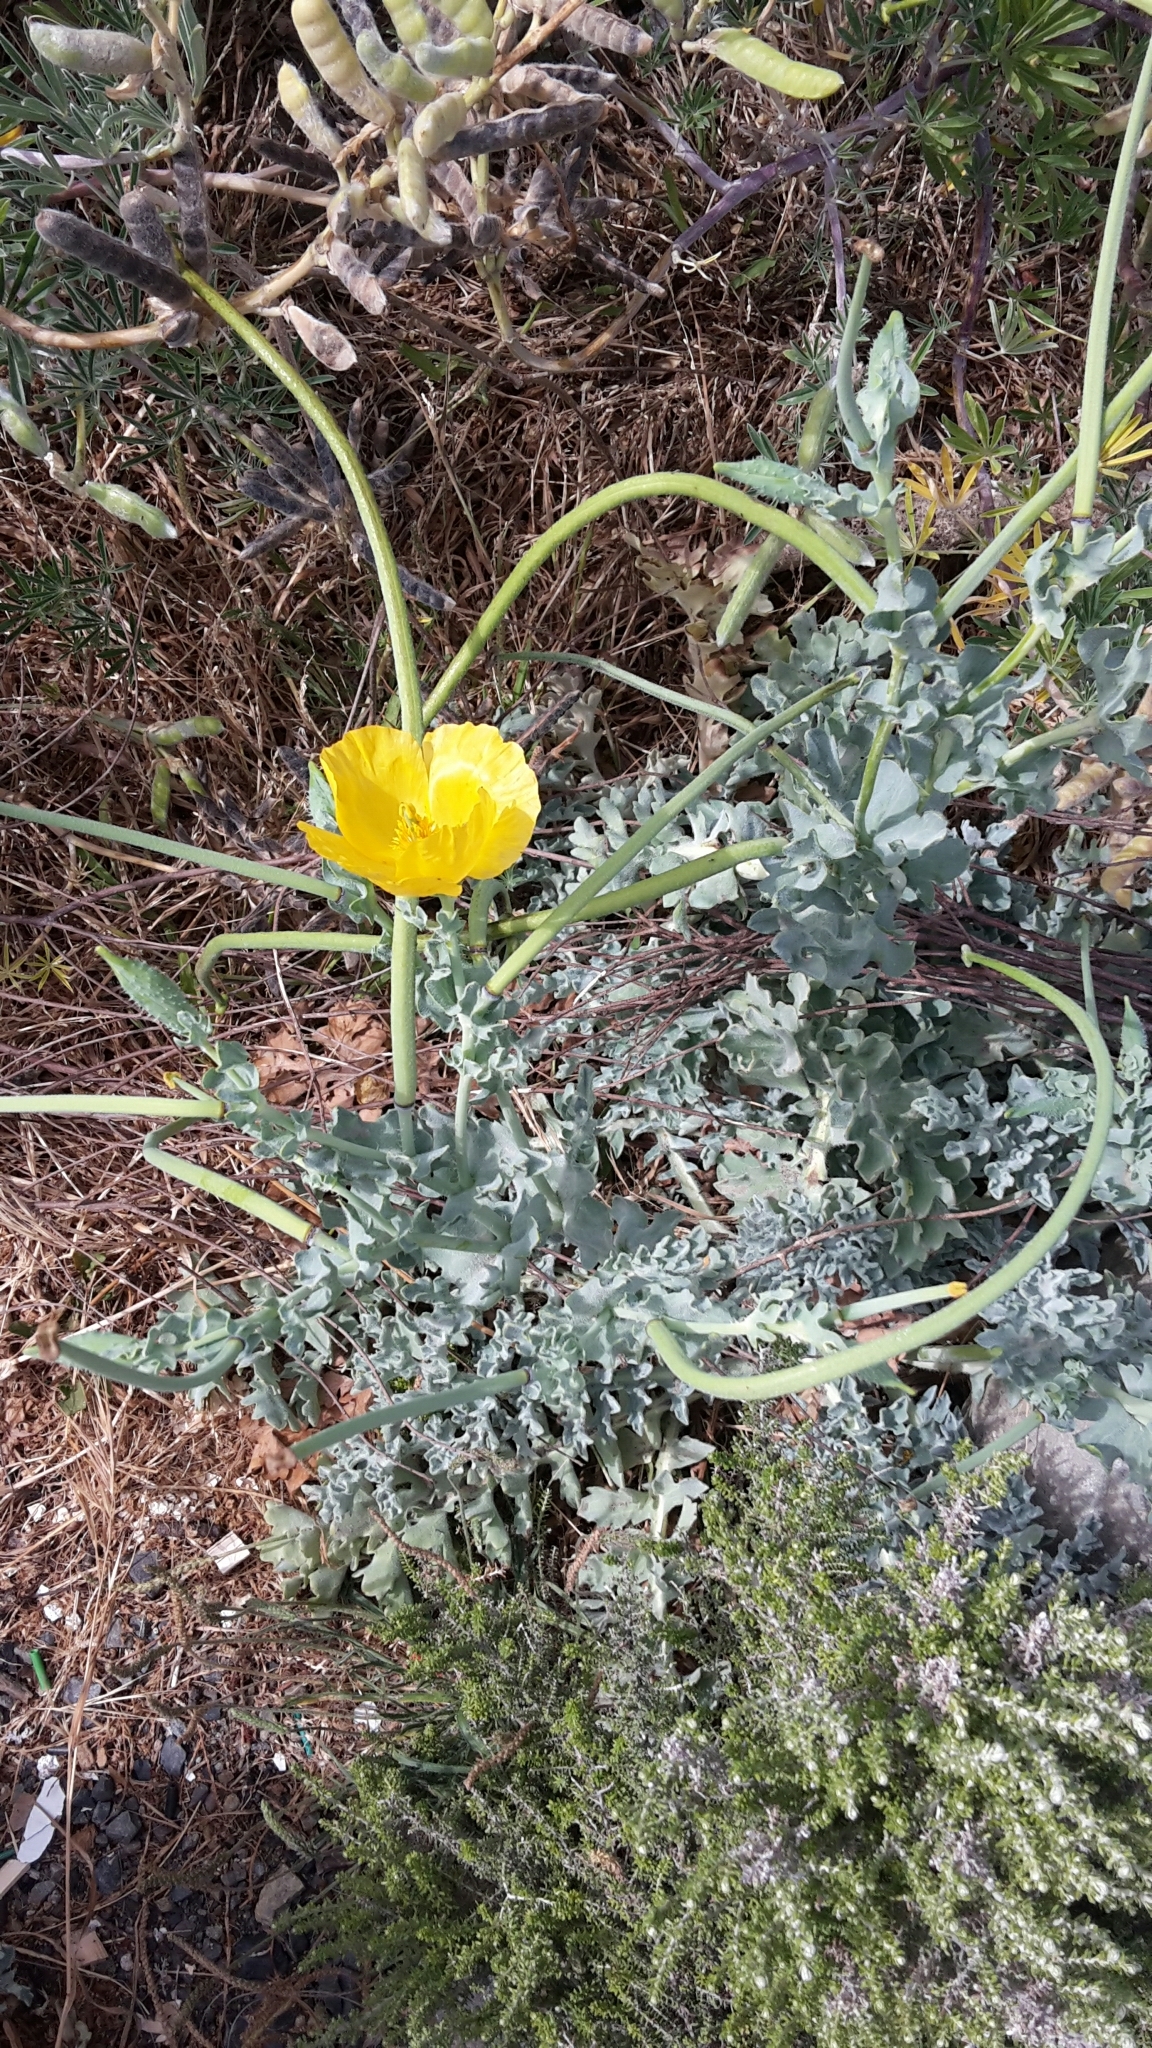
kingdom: Plantae
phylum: Tracheophyta
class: Magnoliopsida
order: Ranunculales
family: Papaveraceae
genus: Glaucium
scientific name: Glaucium flavum
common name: Yellow horned-poppy
